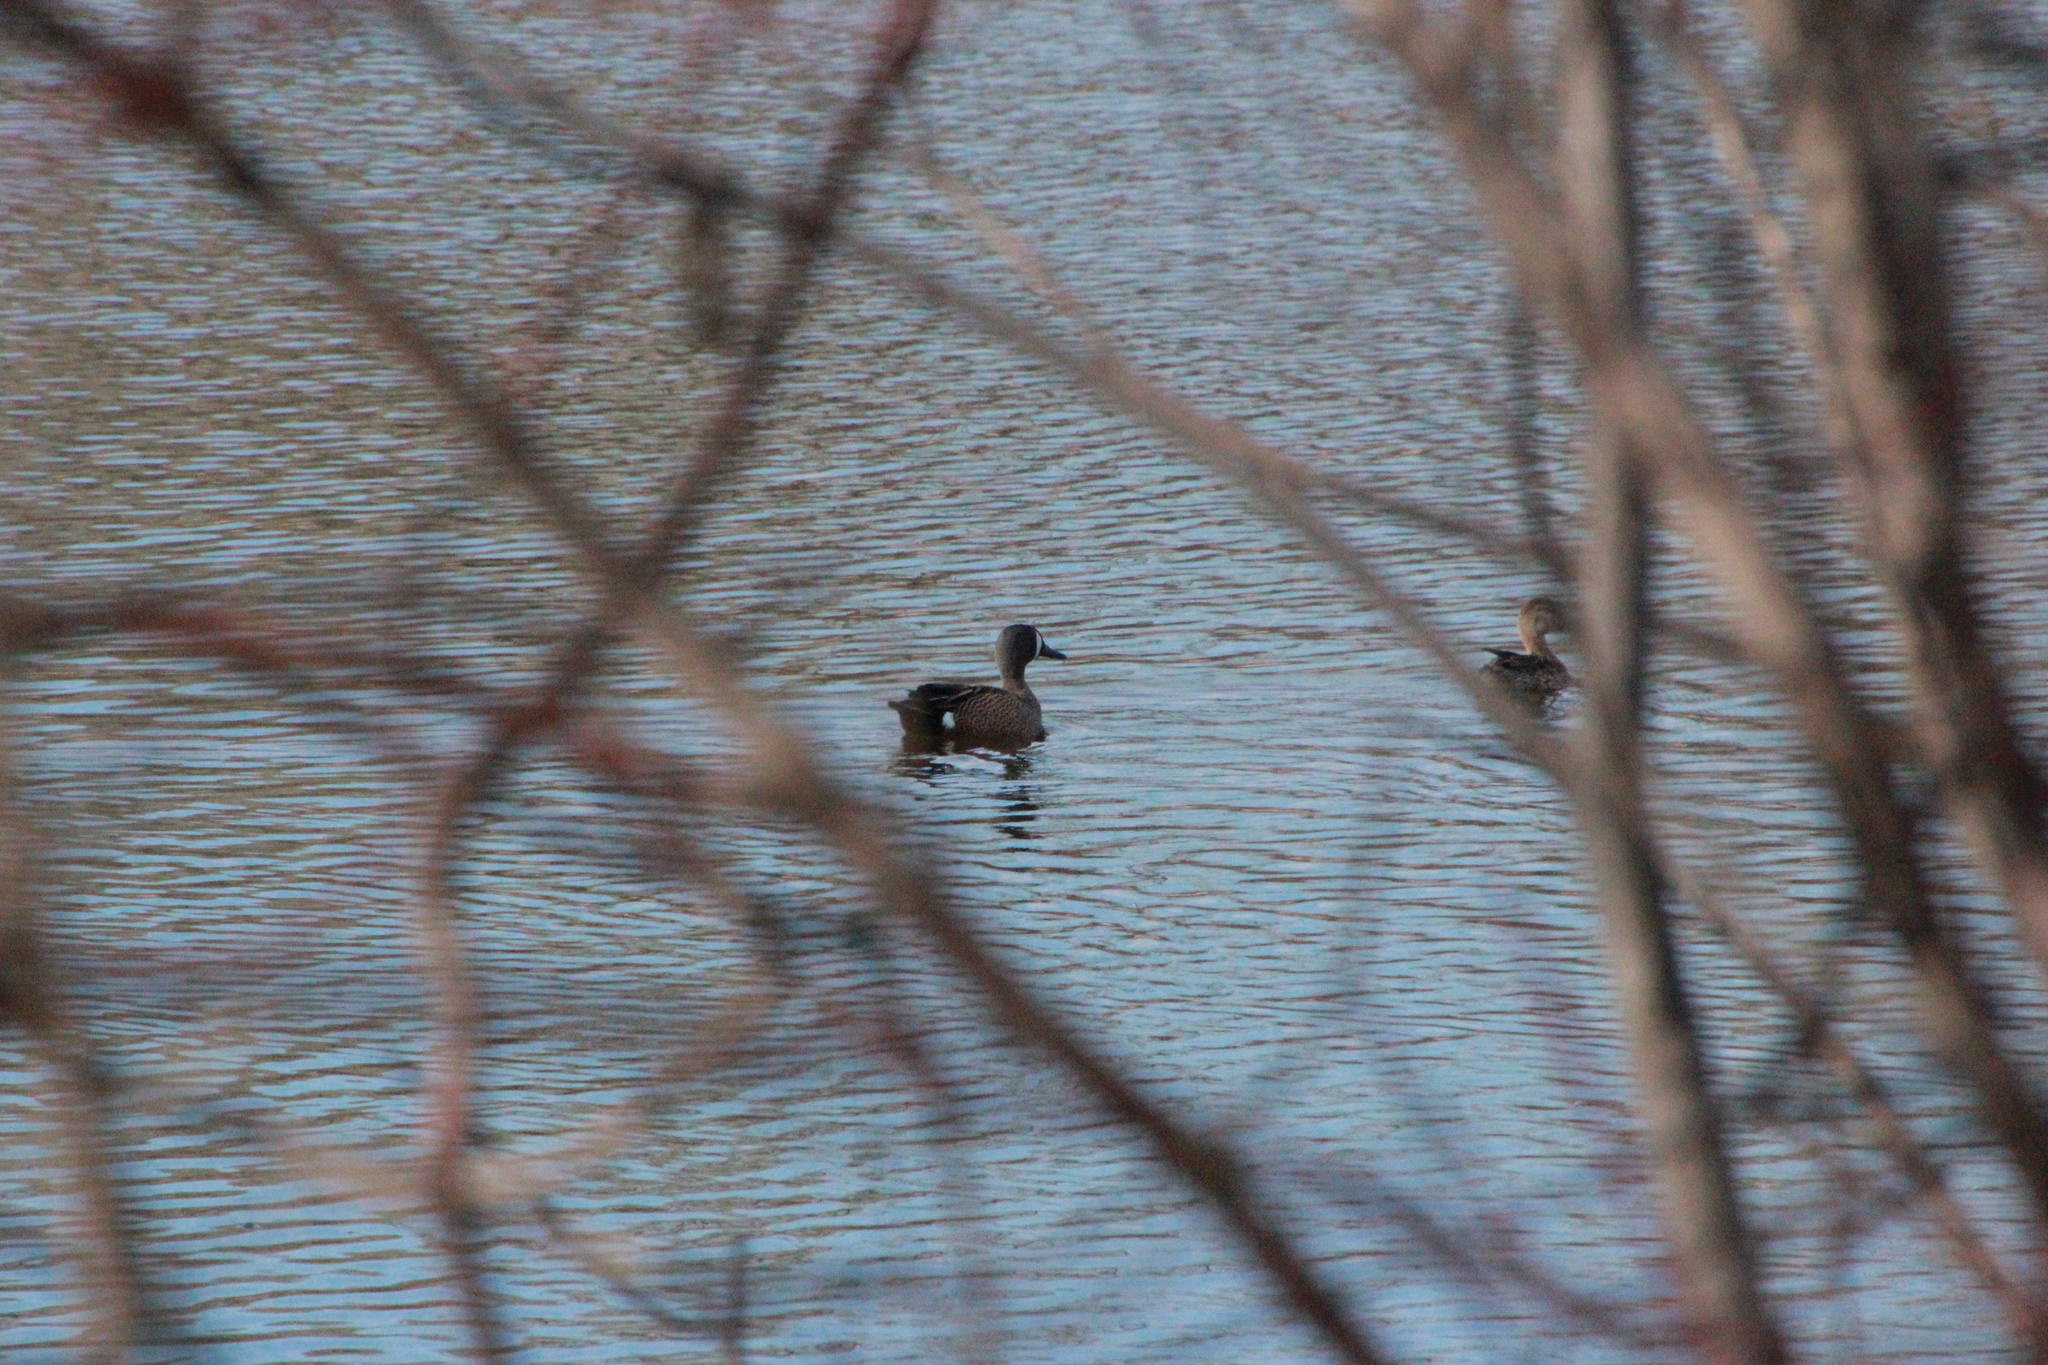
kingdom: Animalia
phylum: Chordata
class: Aves
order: Anseriformes
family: Anatidae
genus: Spatula
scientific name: Spatula discors
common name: Blue-winged teal
